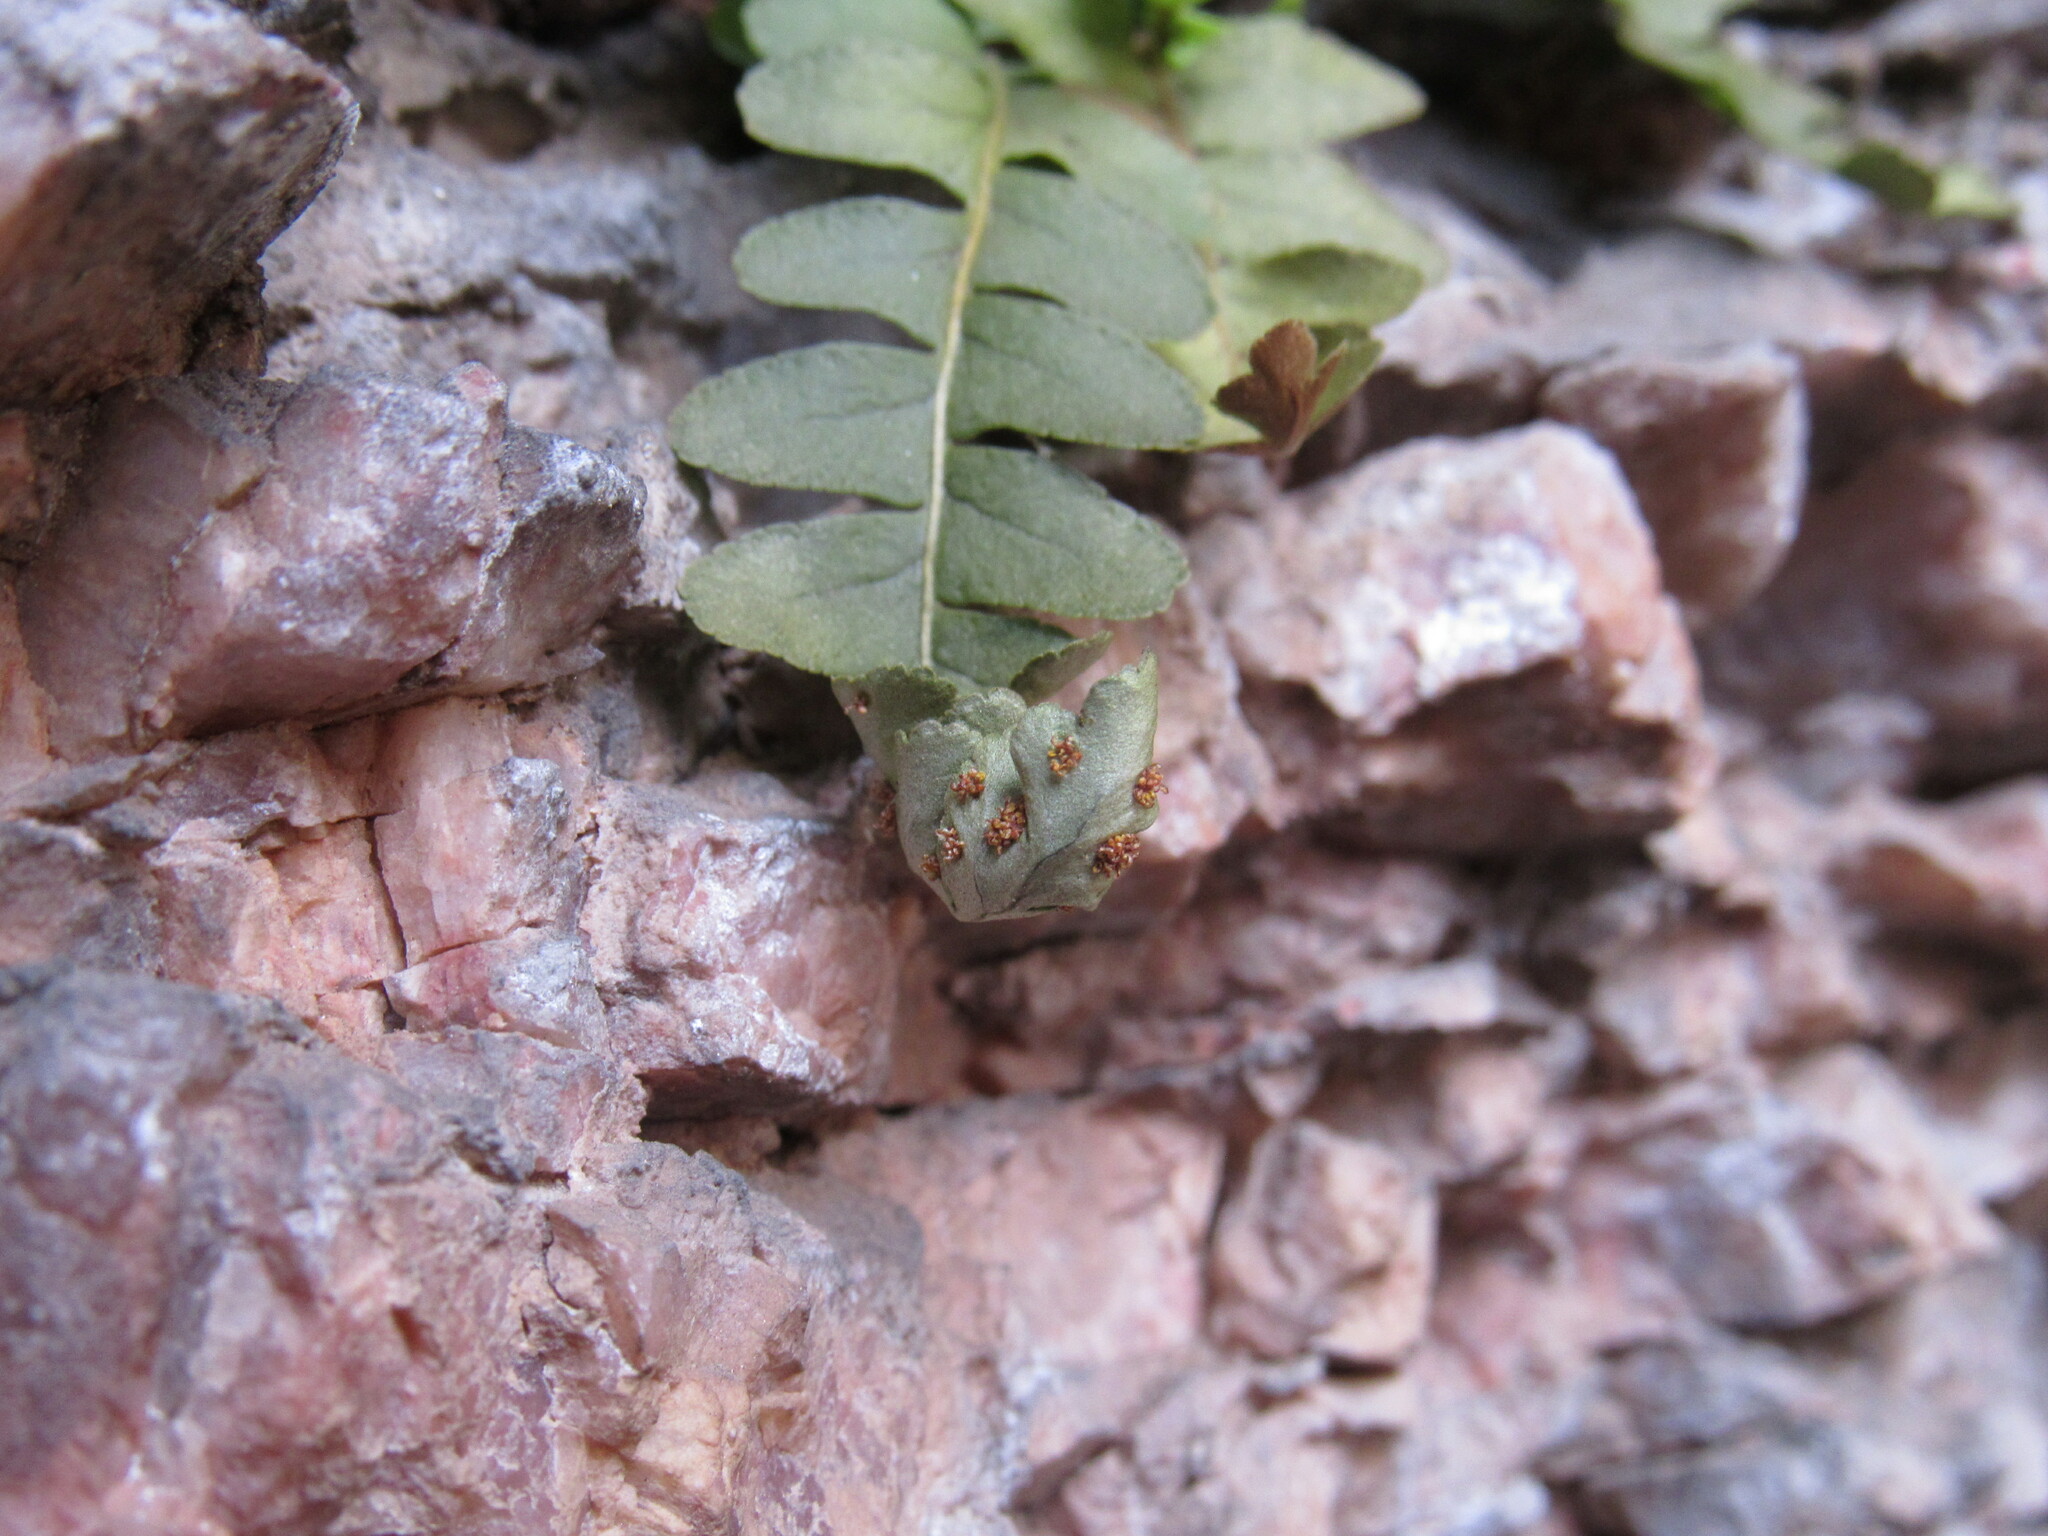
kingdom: Plantae
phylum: Tracheophyta
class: Polypodiopsida
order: Polypodiales
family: Polypodiaceae
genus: Polypodium
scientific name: Polypodium saximontanum
